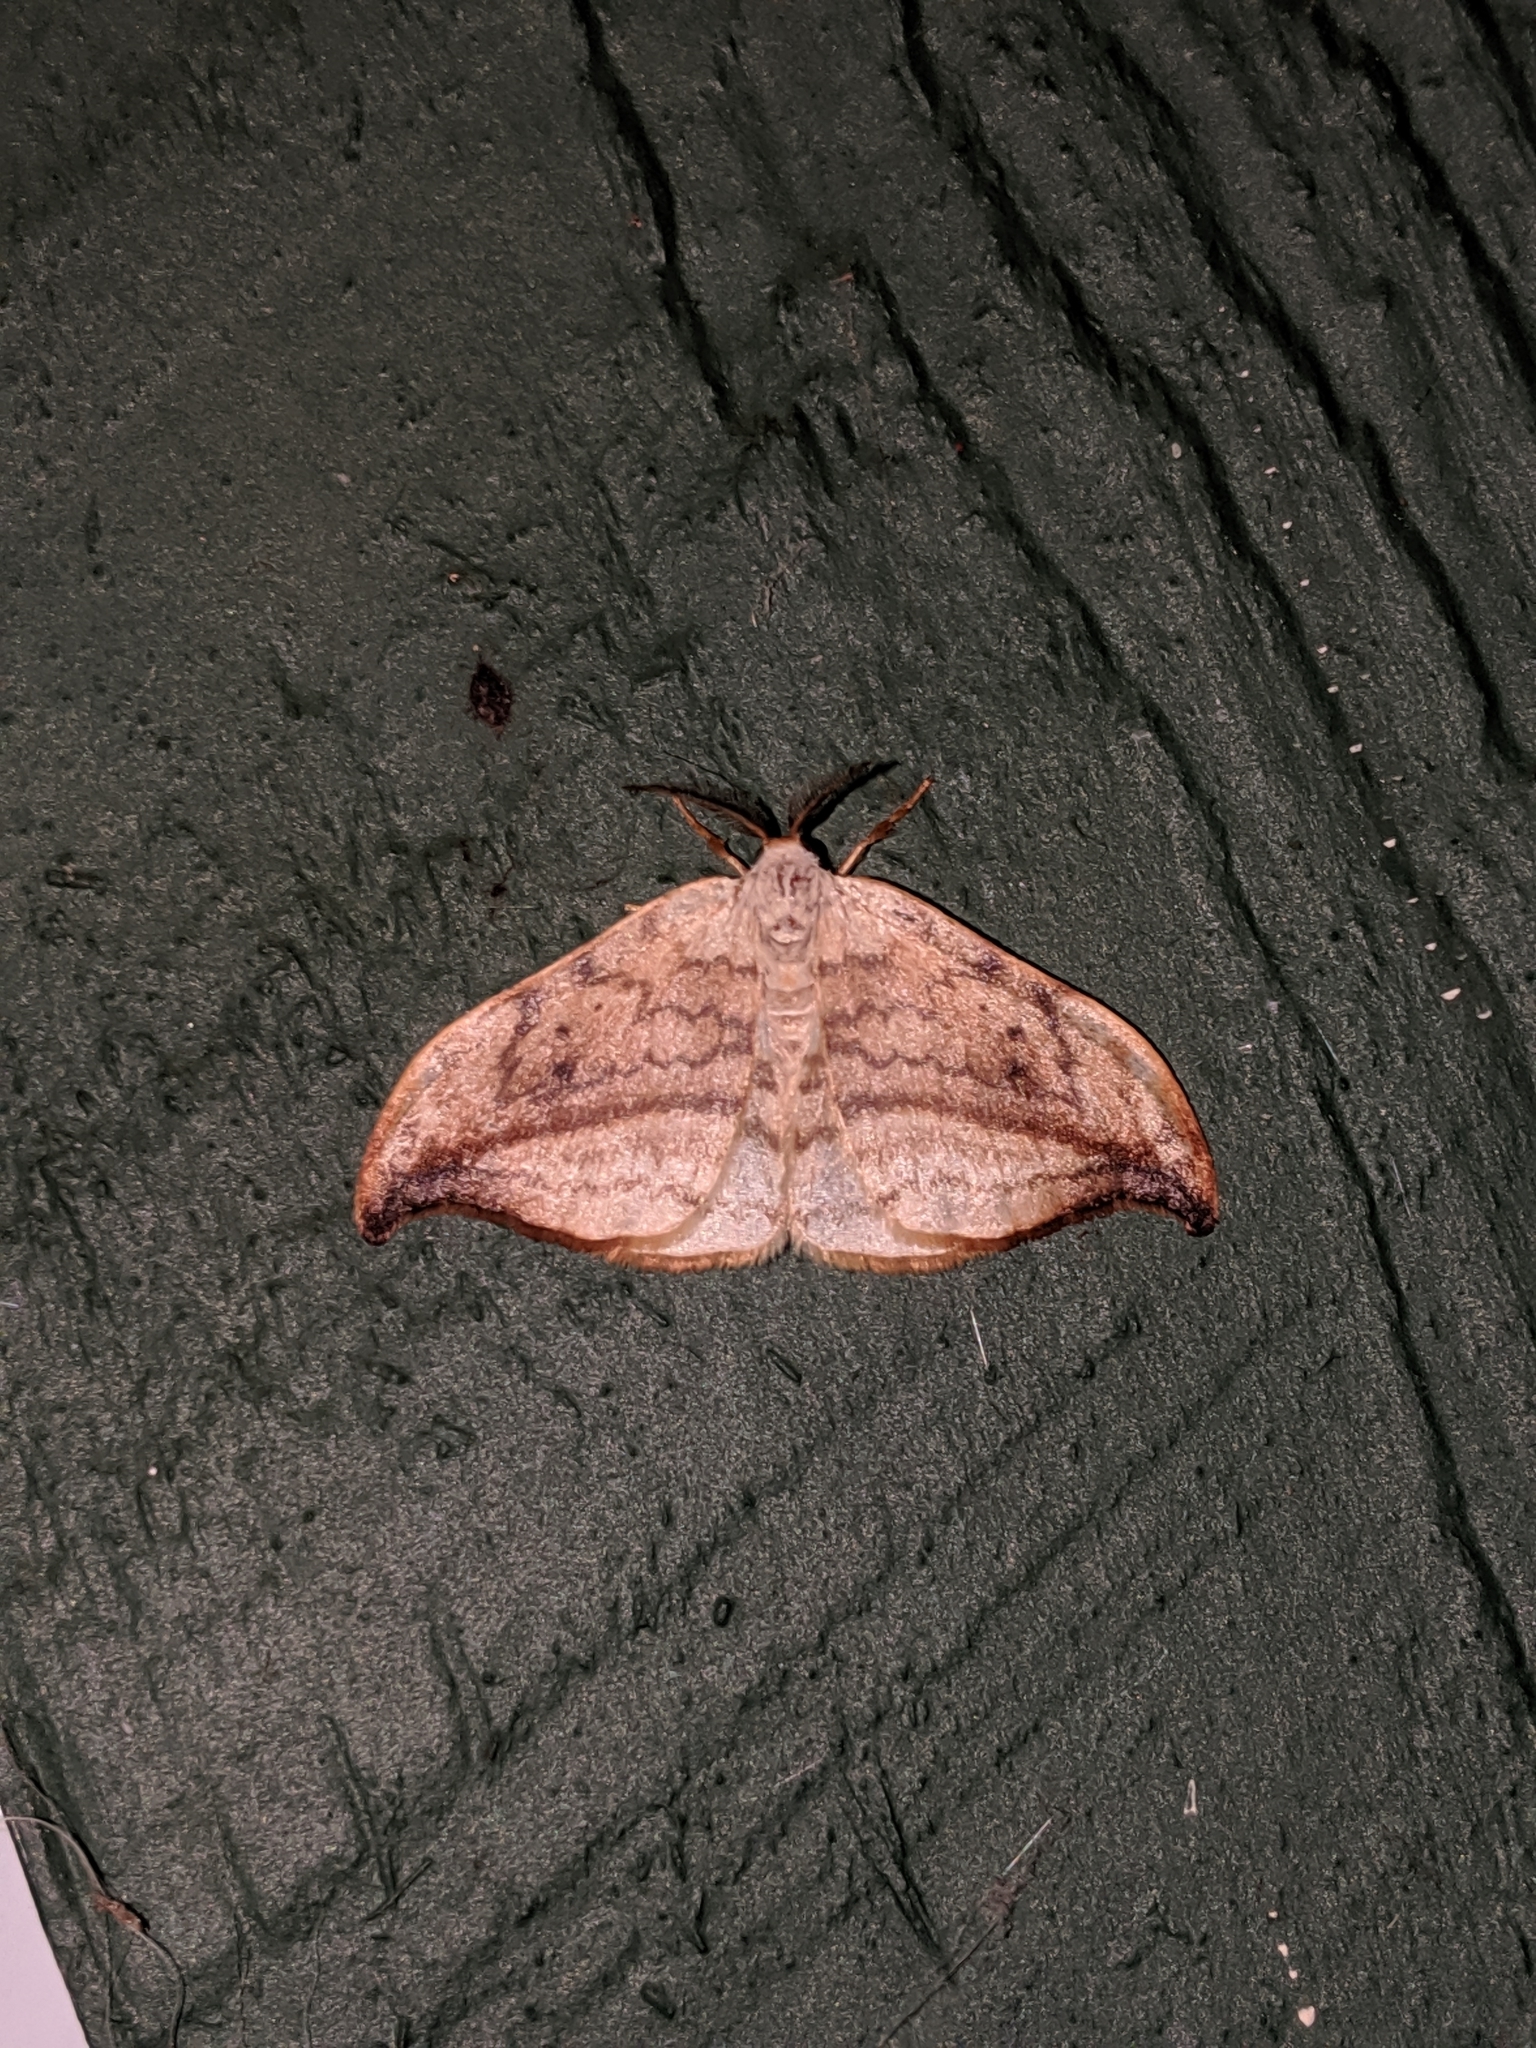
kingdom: Animalia
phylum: Arthropoda
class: Insecta
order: Lepidoptera
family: Drepanidae
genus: Drepana
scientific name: Drepana arcuata
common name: Arched hooktip moth
